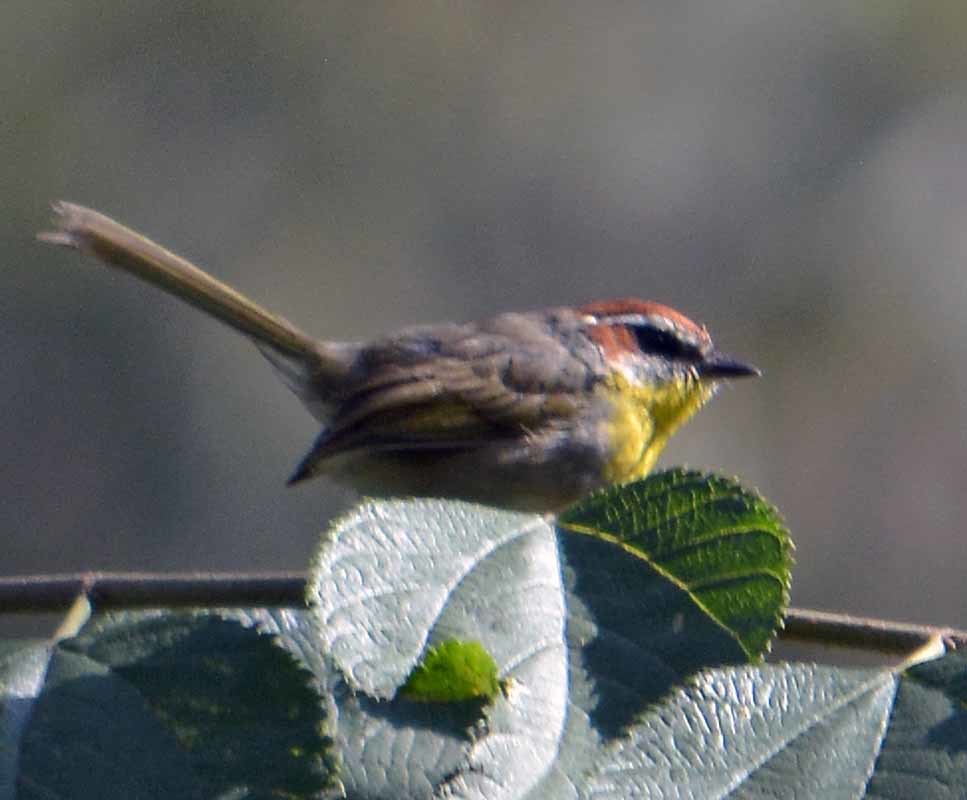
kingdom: Animalia
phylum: Chordata
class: Aves
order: Passeriformes
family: Parulidae
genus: Basileuterus
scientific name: Basileuterus rufifrons
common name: Rufous-capped warbler
